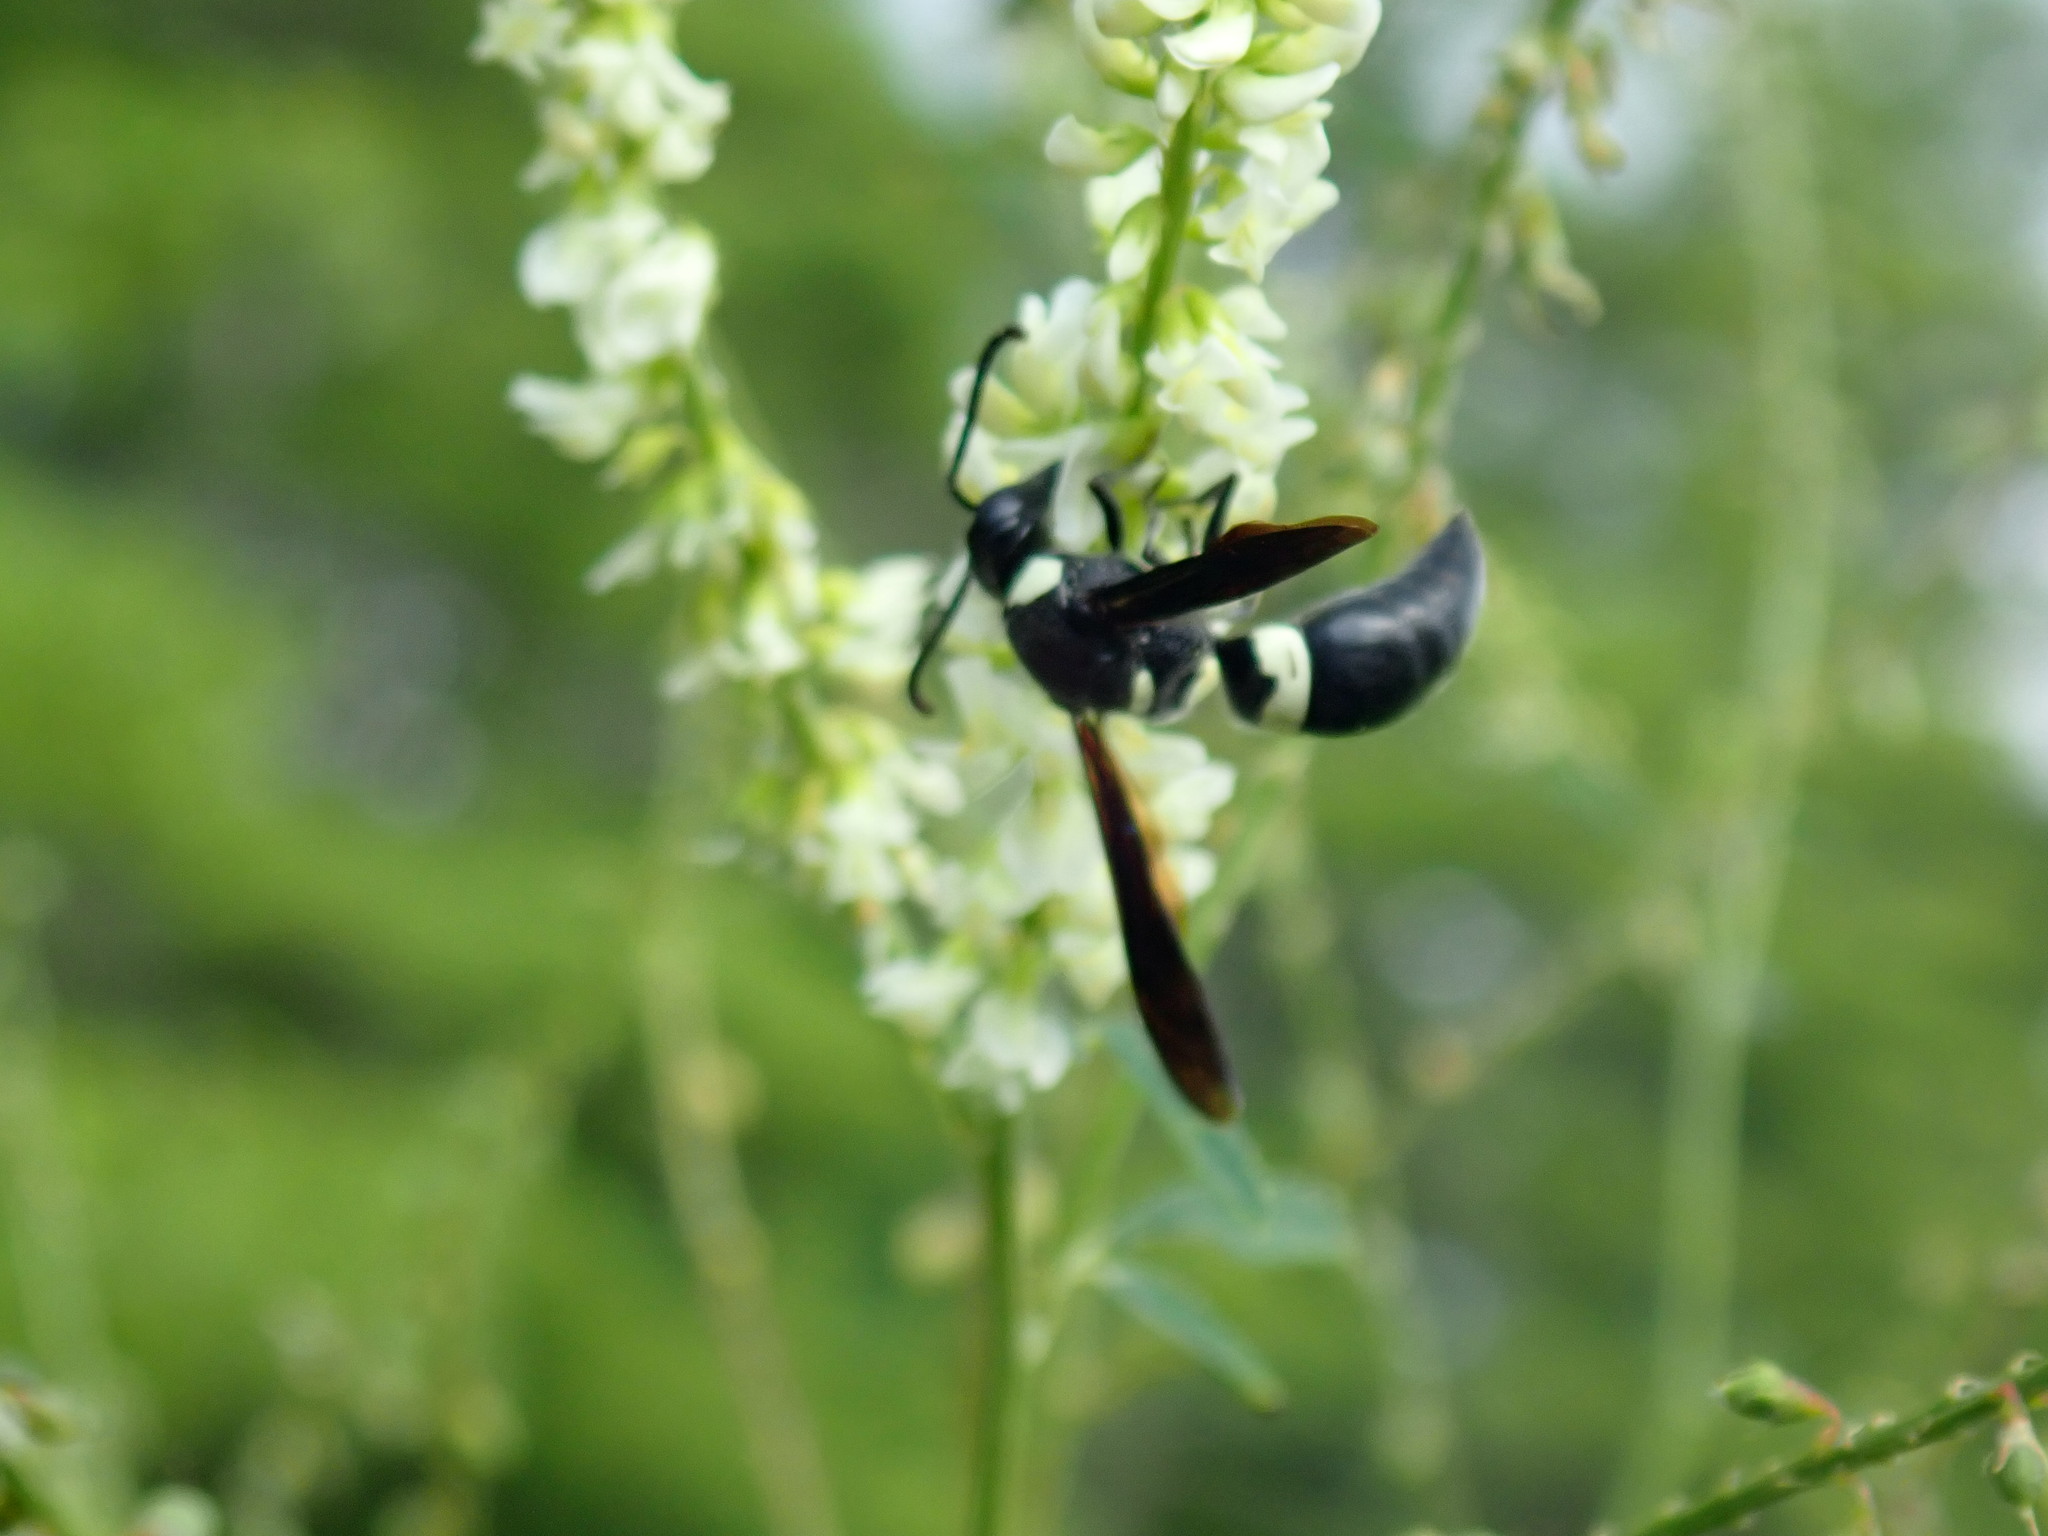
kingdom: Animalia
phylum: Arthropoda
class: Insecta
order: Hymenoptera
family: Eumenidae
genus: Monobia
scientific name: Monobia quadridens
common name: Four-toothed mason wasp
